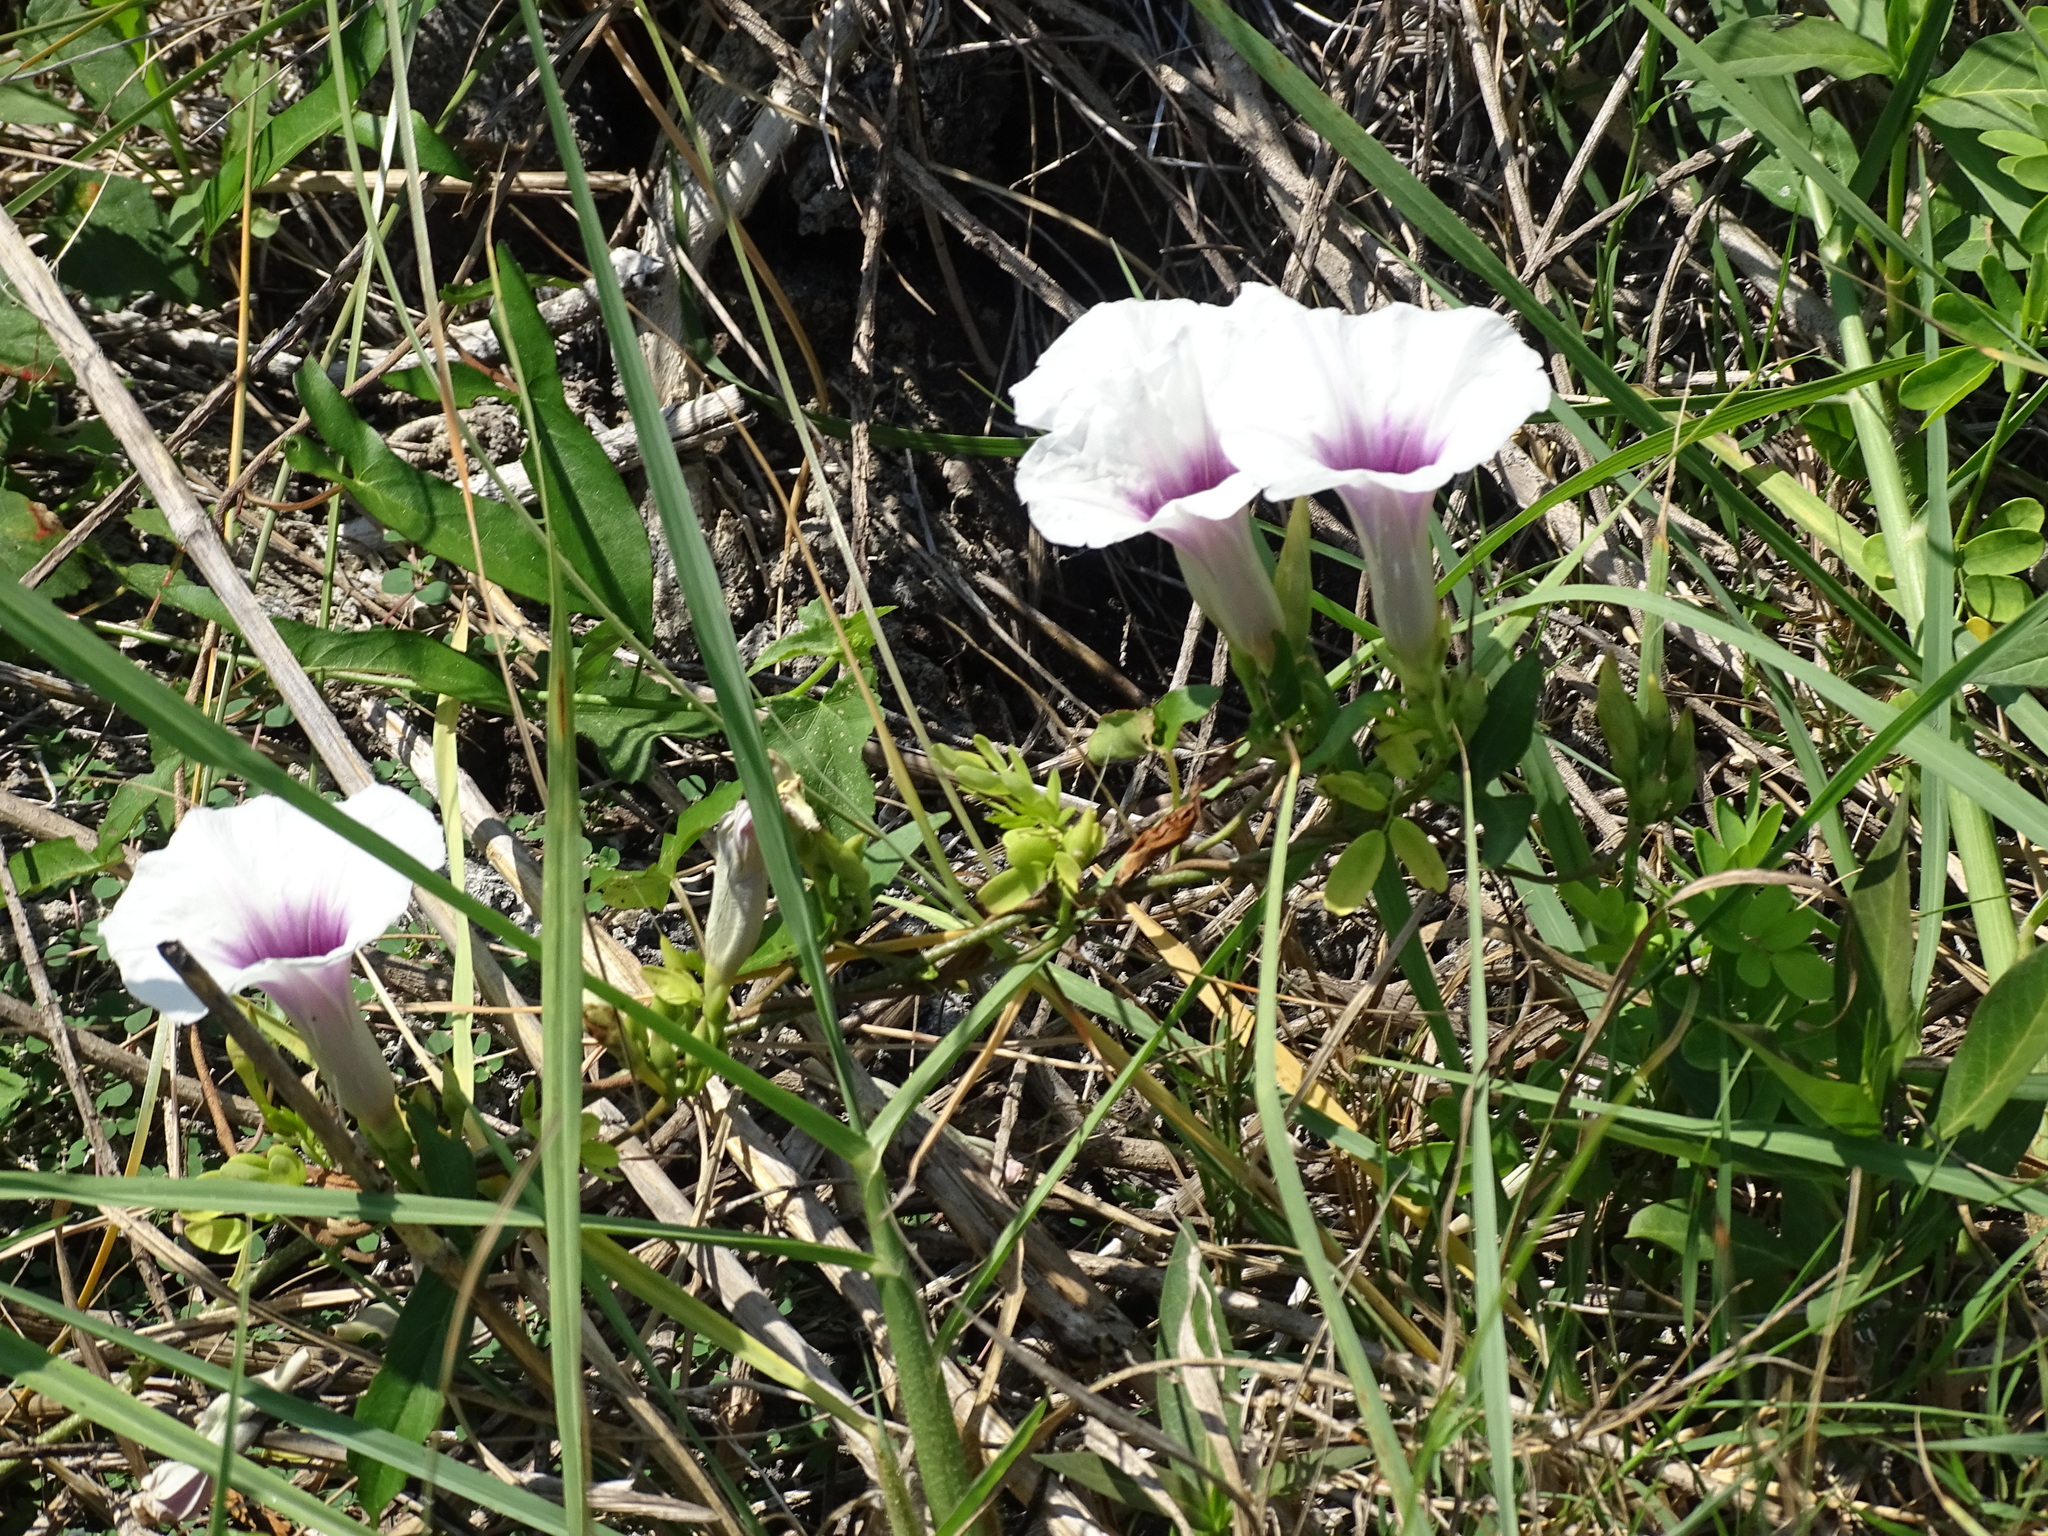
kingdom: Plantae
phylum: Tracheophyta
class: Magnoliopsida
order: Solanales
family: Convolvulaceae
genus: Ipomoea
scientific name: Ipomoea anisomeres
